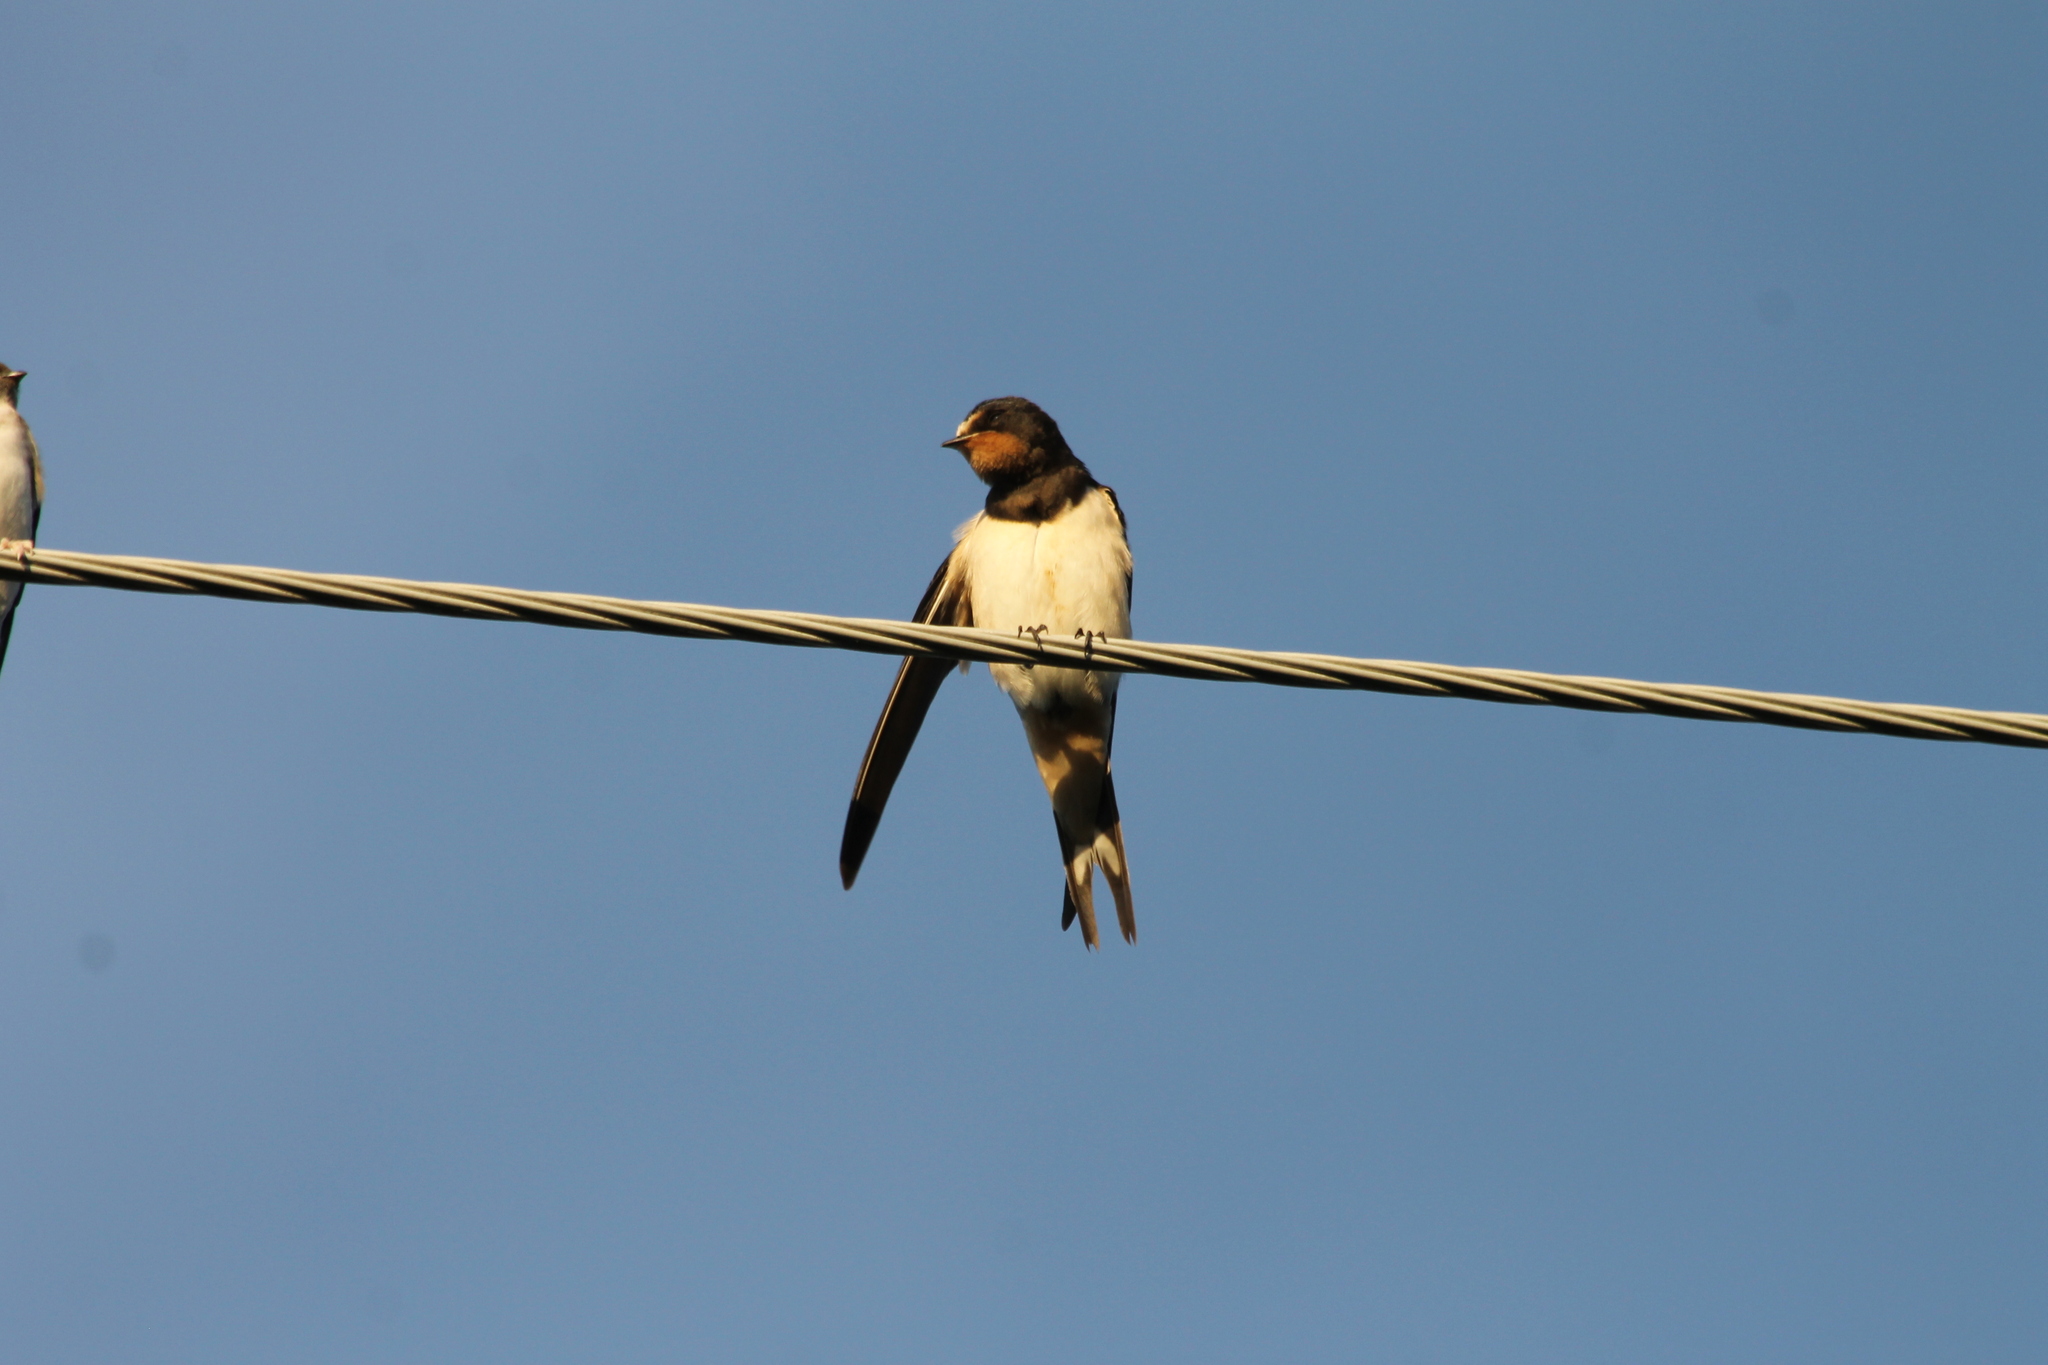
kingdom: Animalia
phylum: Chordata
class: Aves
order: Passeriformes
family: Hirundinidae
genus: Hirundo
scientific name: Hirundo rustica
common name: Barn swallow
